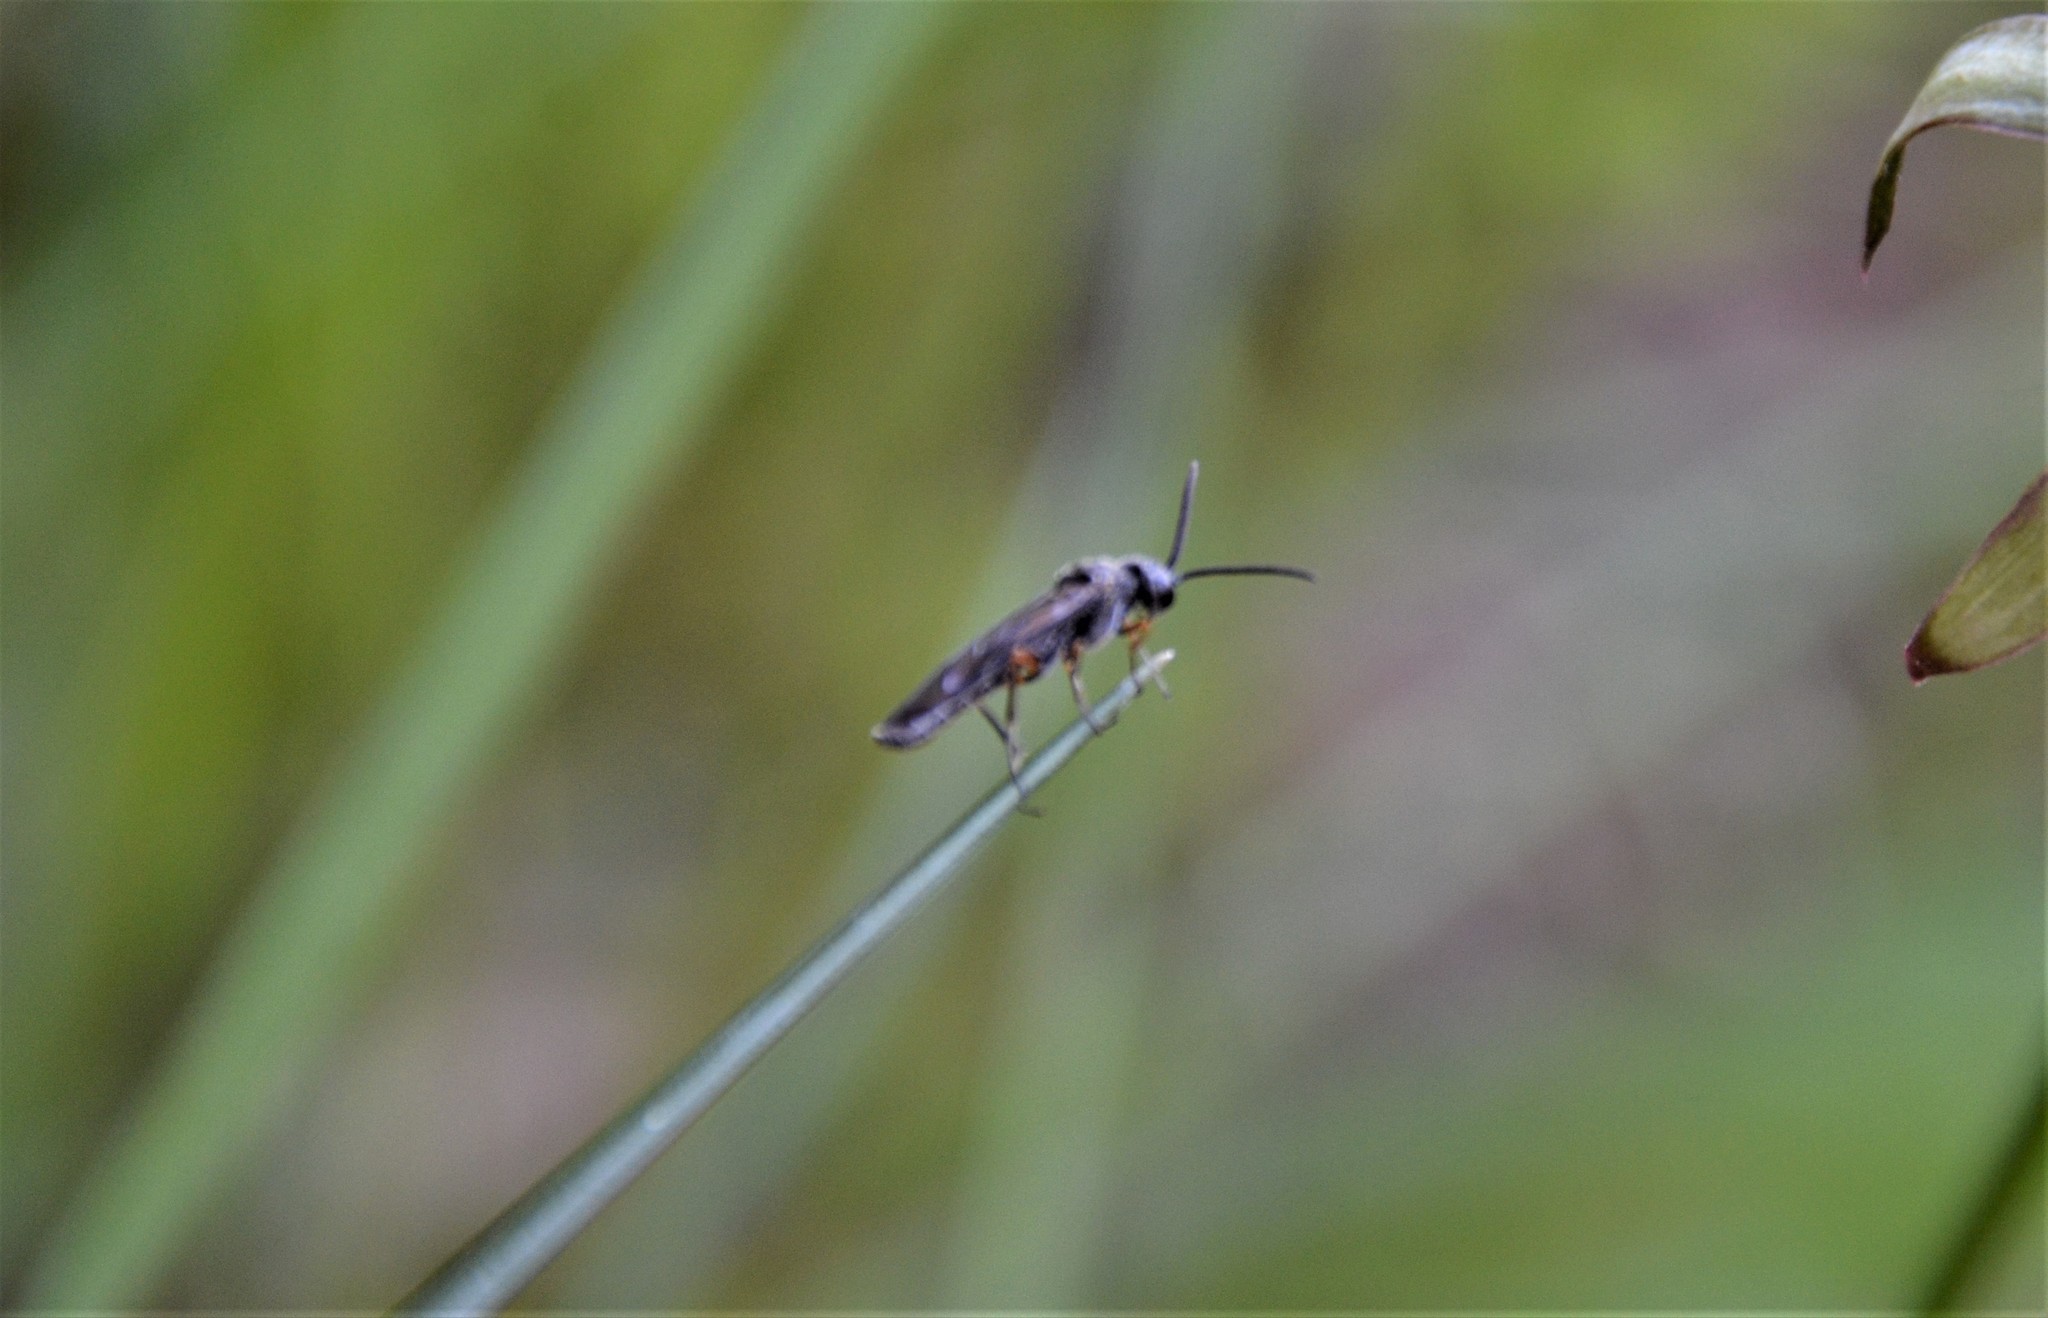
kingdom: Animalia
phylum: Arthropoda
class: Insecta
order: Hymenoptera
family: Tenthredinidae
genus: Dolerus
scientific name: Dolerus vestigialis
